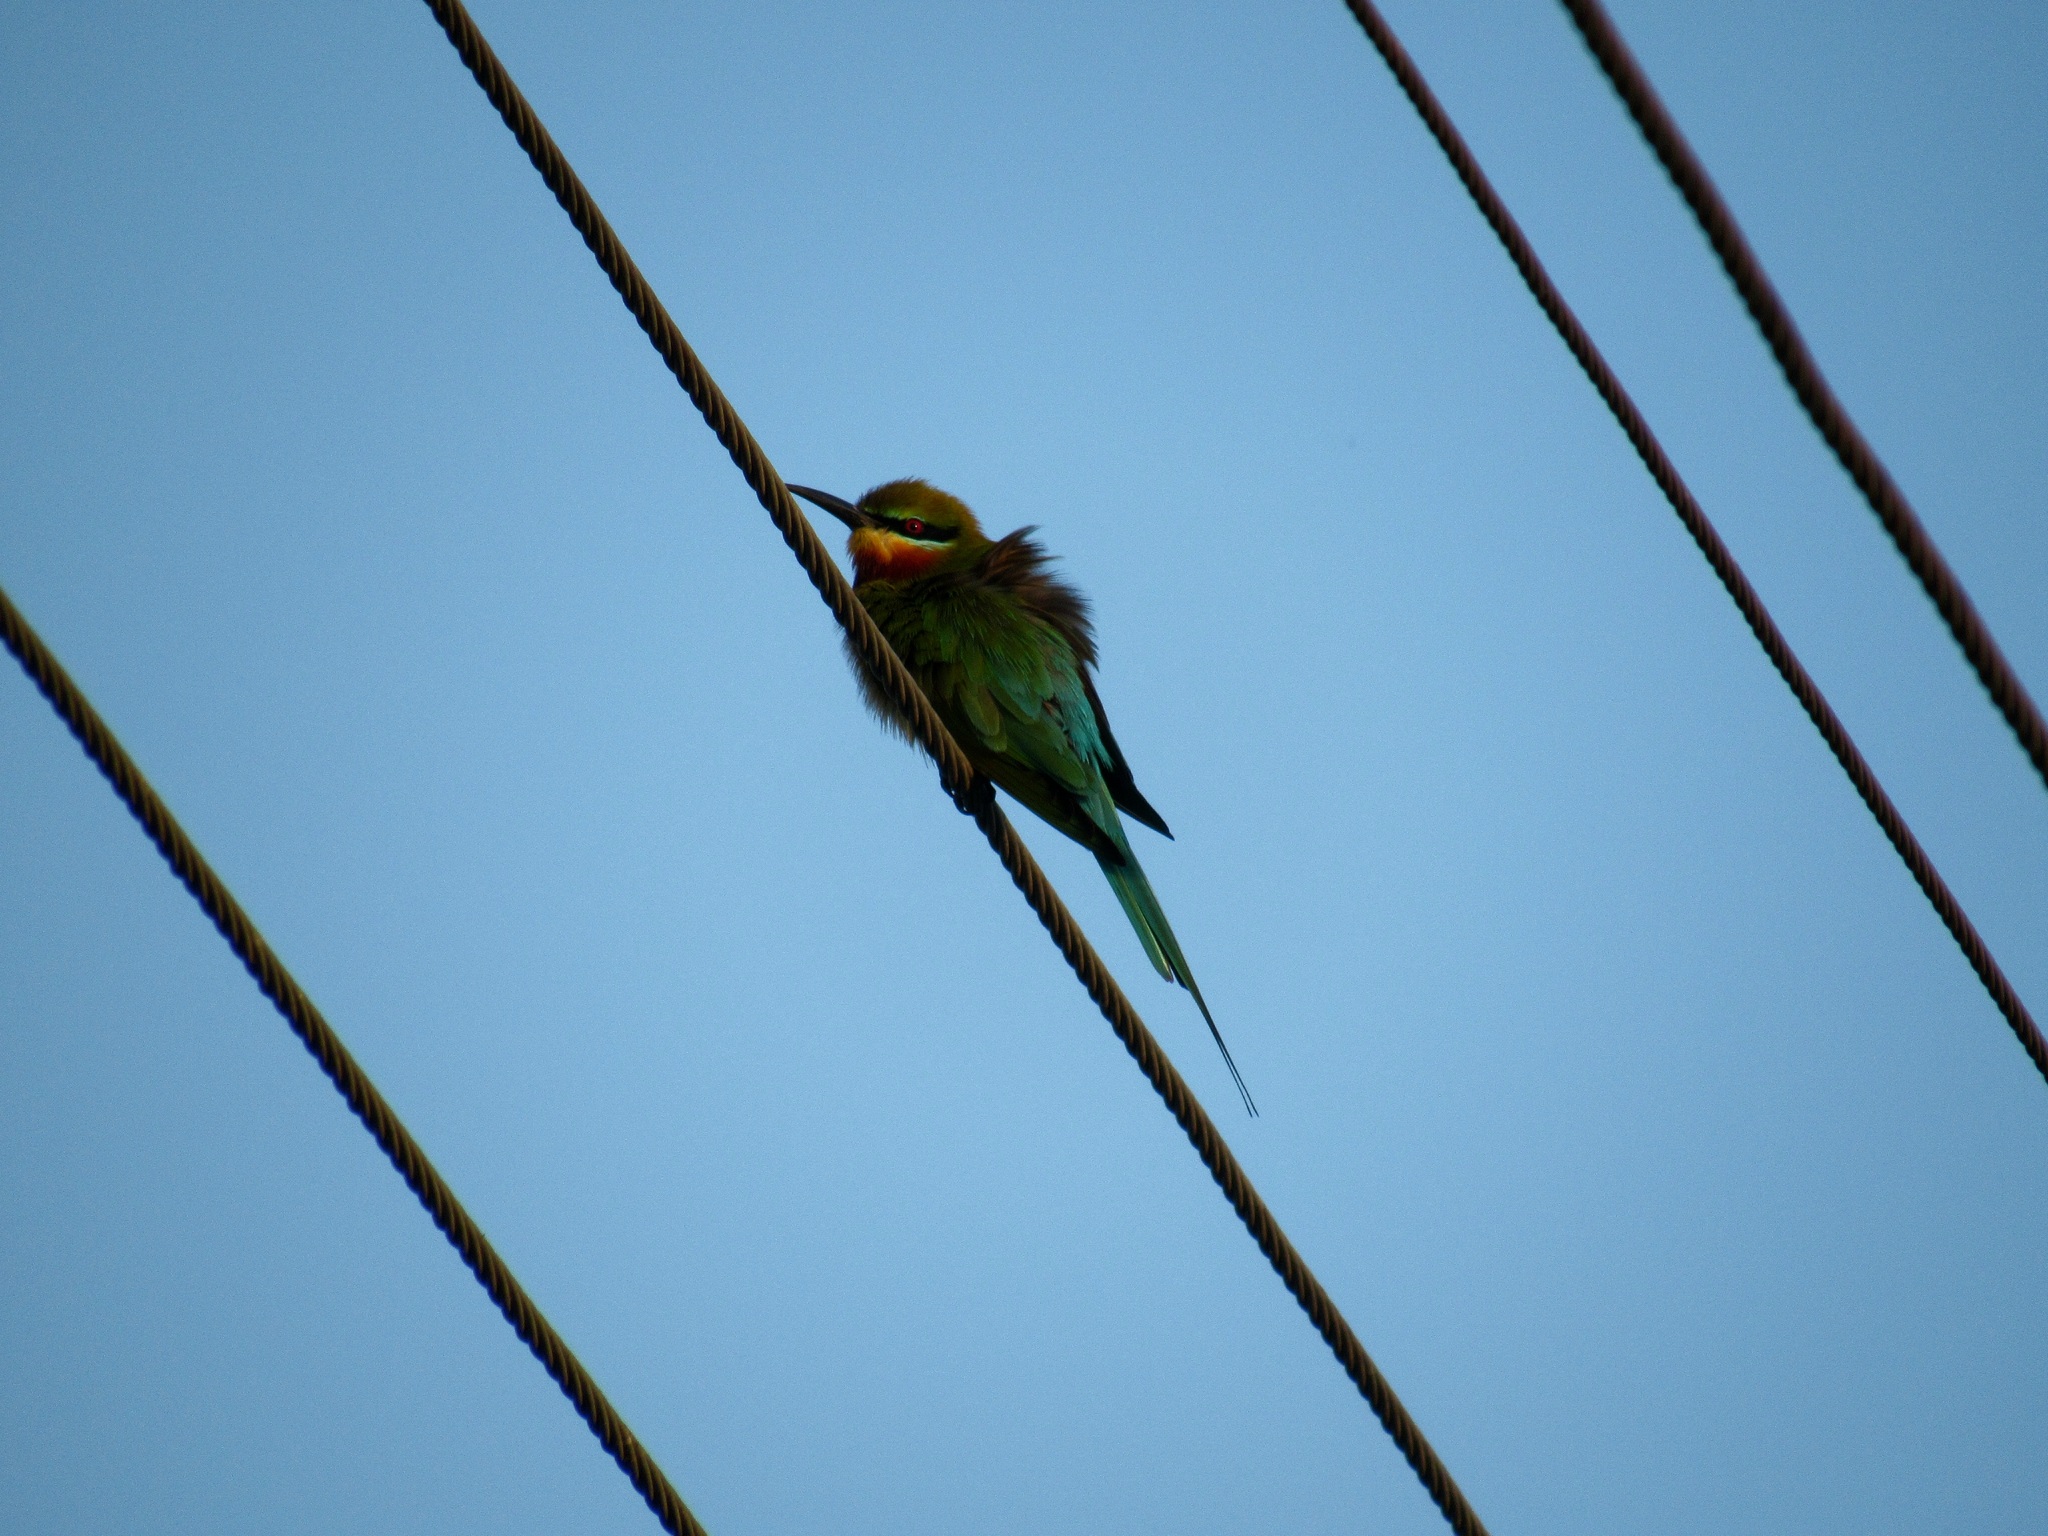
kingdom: Animalia
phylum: Chordata
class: Aves
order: Coraciiformes
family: Meropidae
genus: Merops
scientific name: Merops philippinus
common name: Blue-tailed bee-eater
